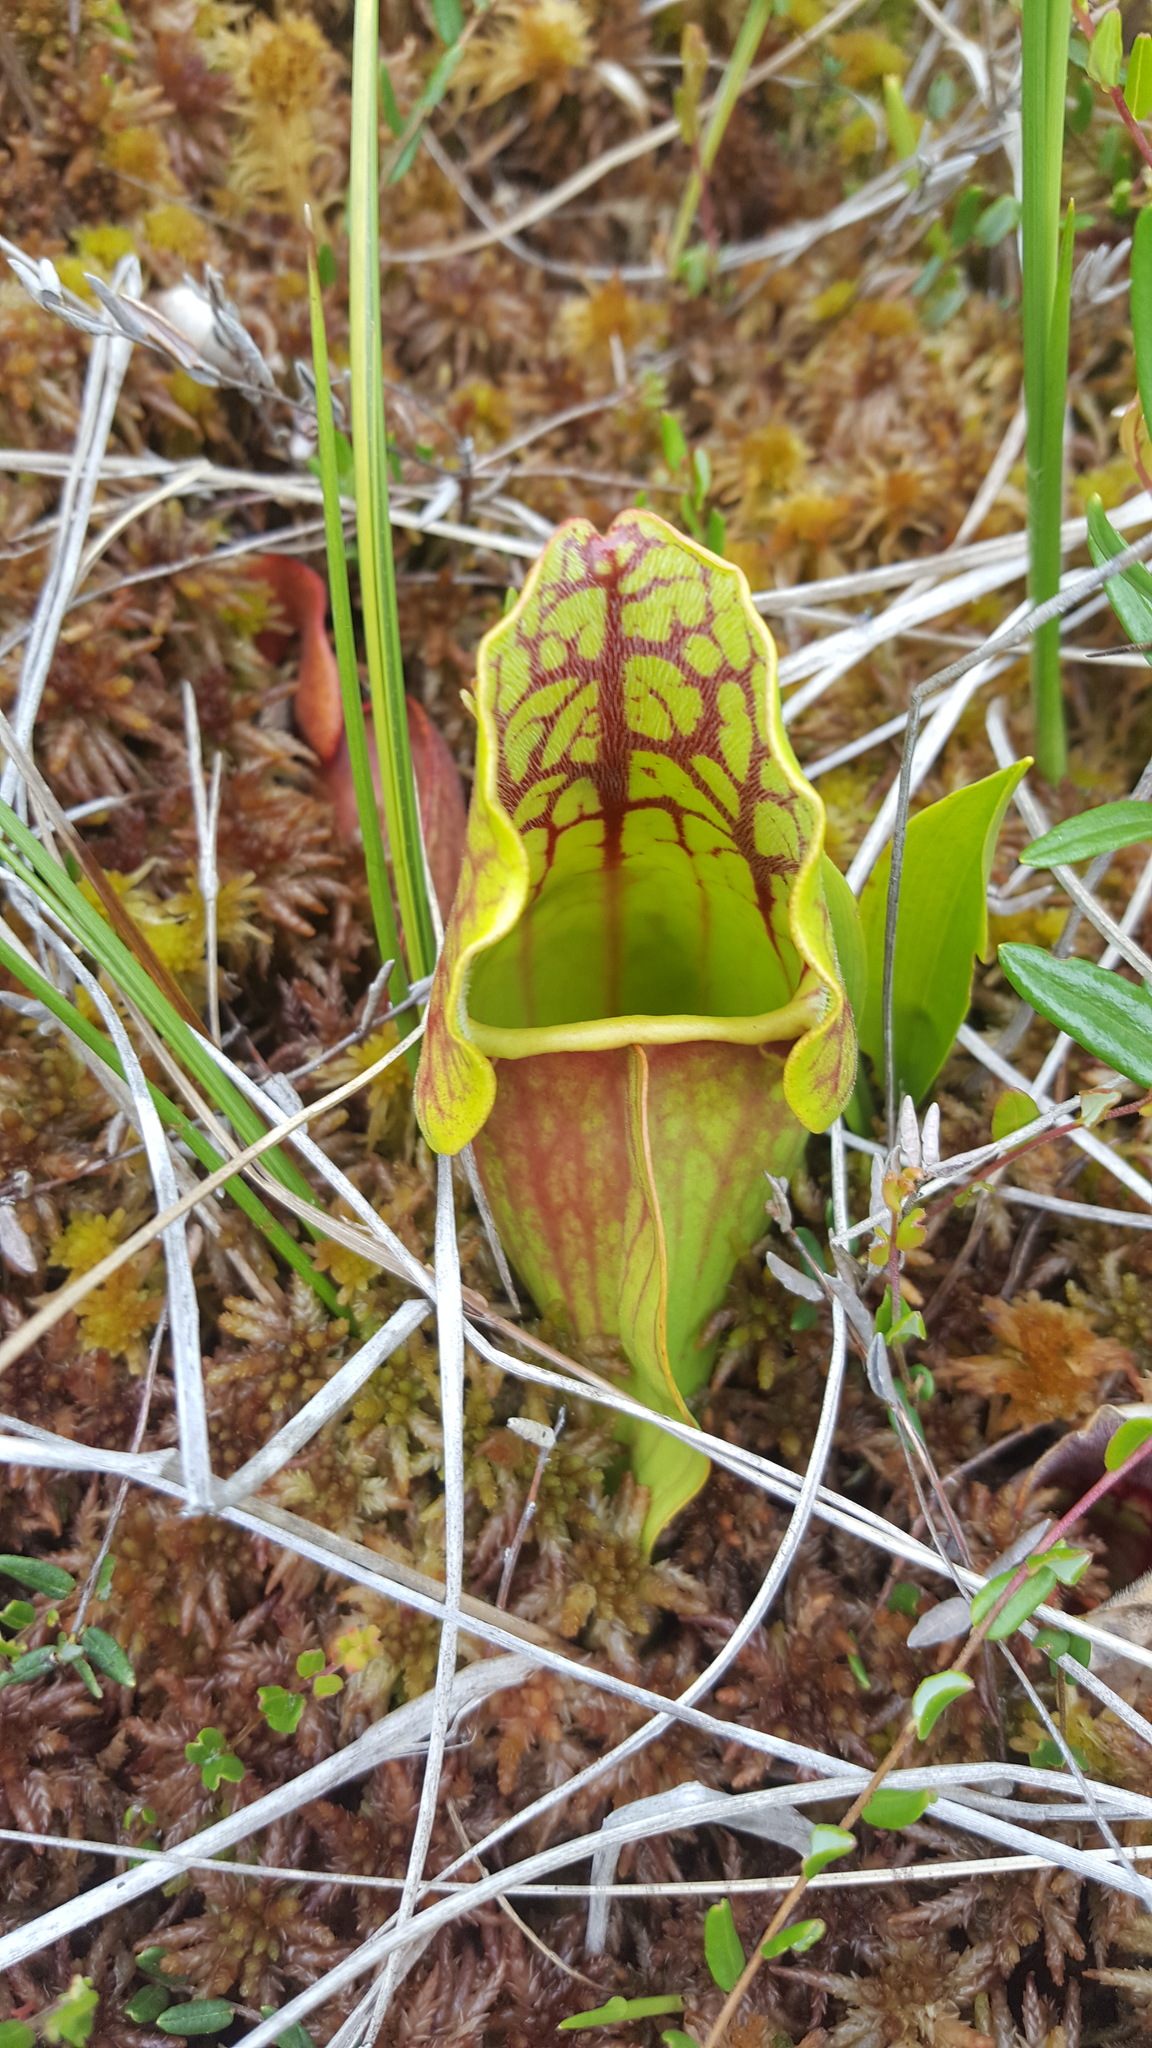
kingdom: Plantae
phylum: Tracheophyta
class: Magnoliopsida
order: Ericales
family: Sarraceniaceae
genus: Sarracenia
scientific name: Sarracenia purpurea
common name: Pitcherplant
